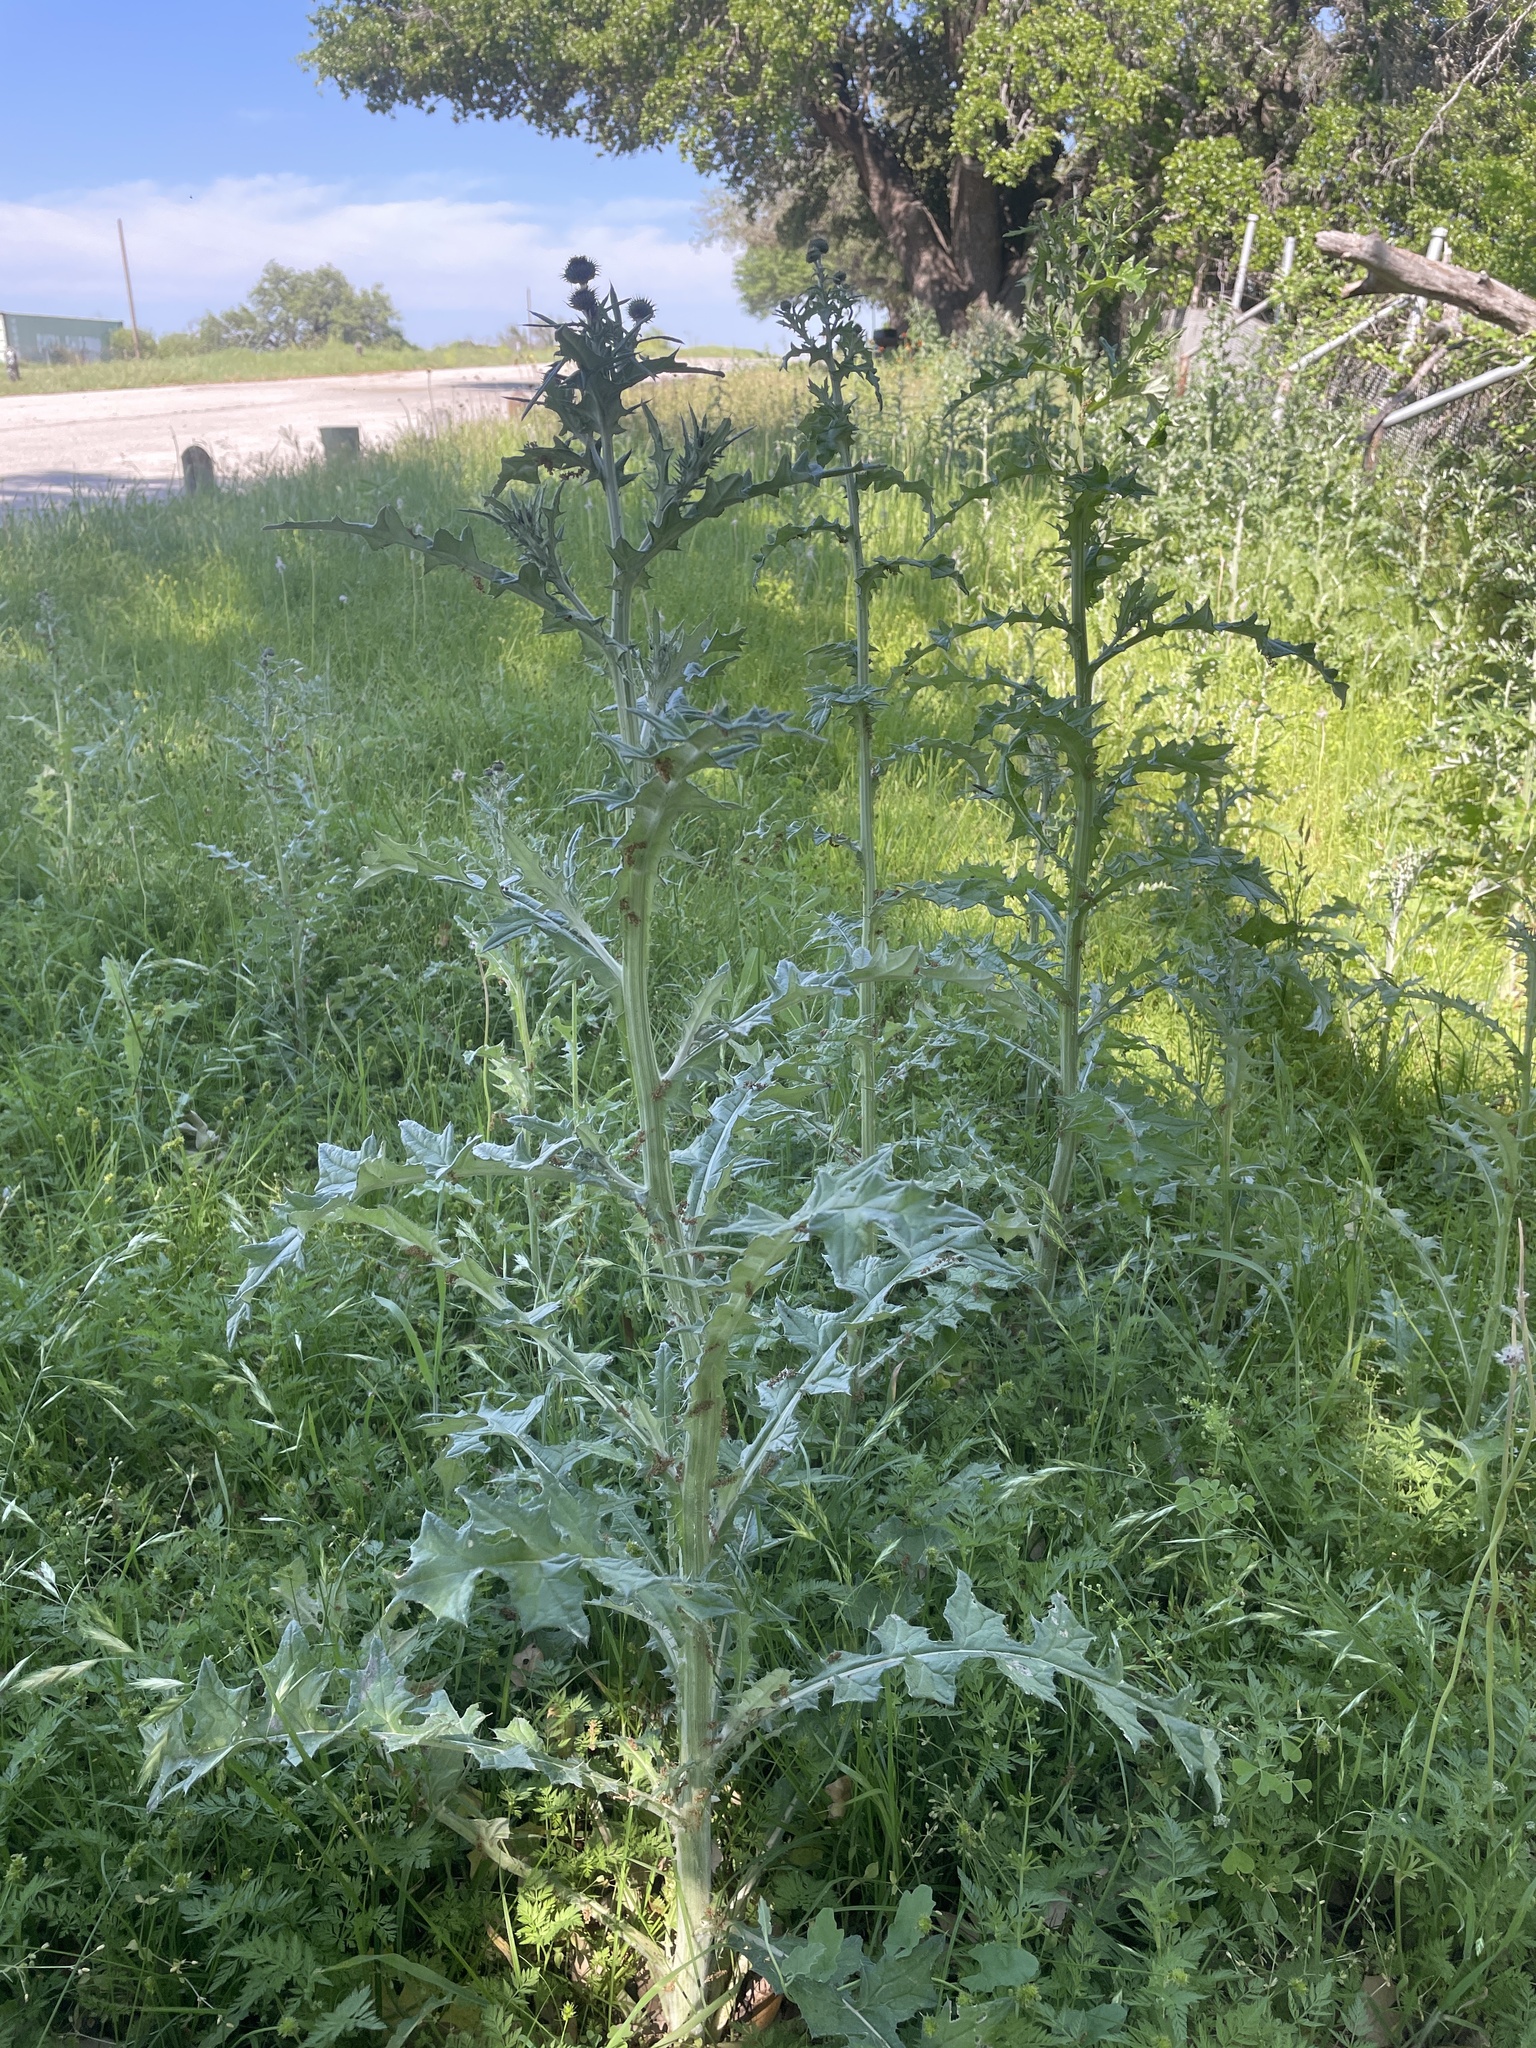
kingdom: Plantae
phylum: Tracheophyta
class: Magnoliopsida
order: Asterales
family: Asteraceae
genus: Cirsium
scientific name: Cirsium texanum
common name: Texas purple thistle
